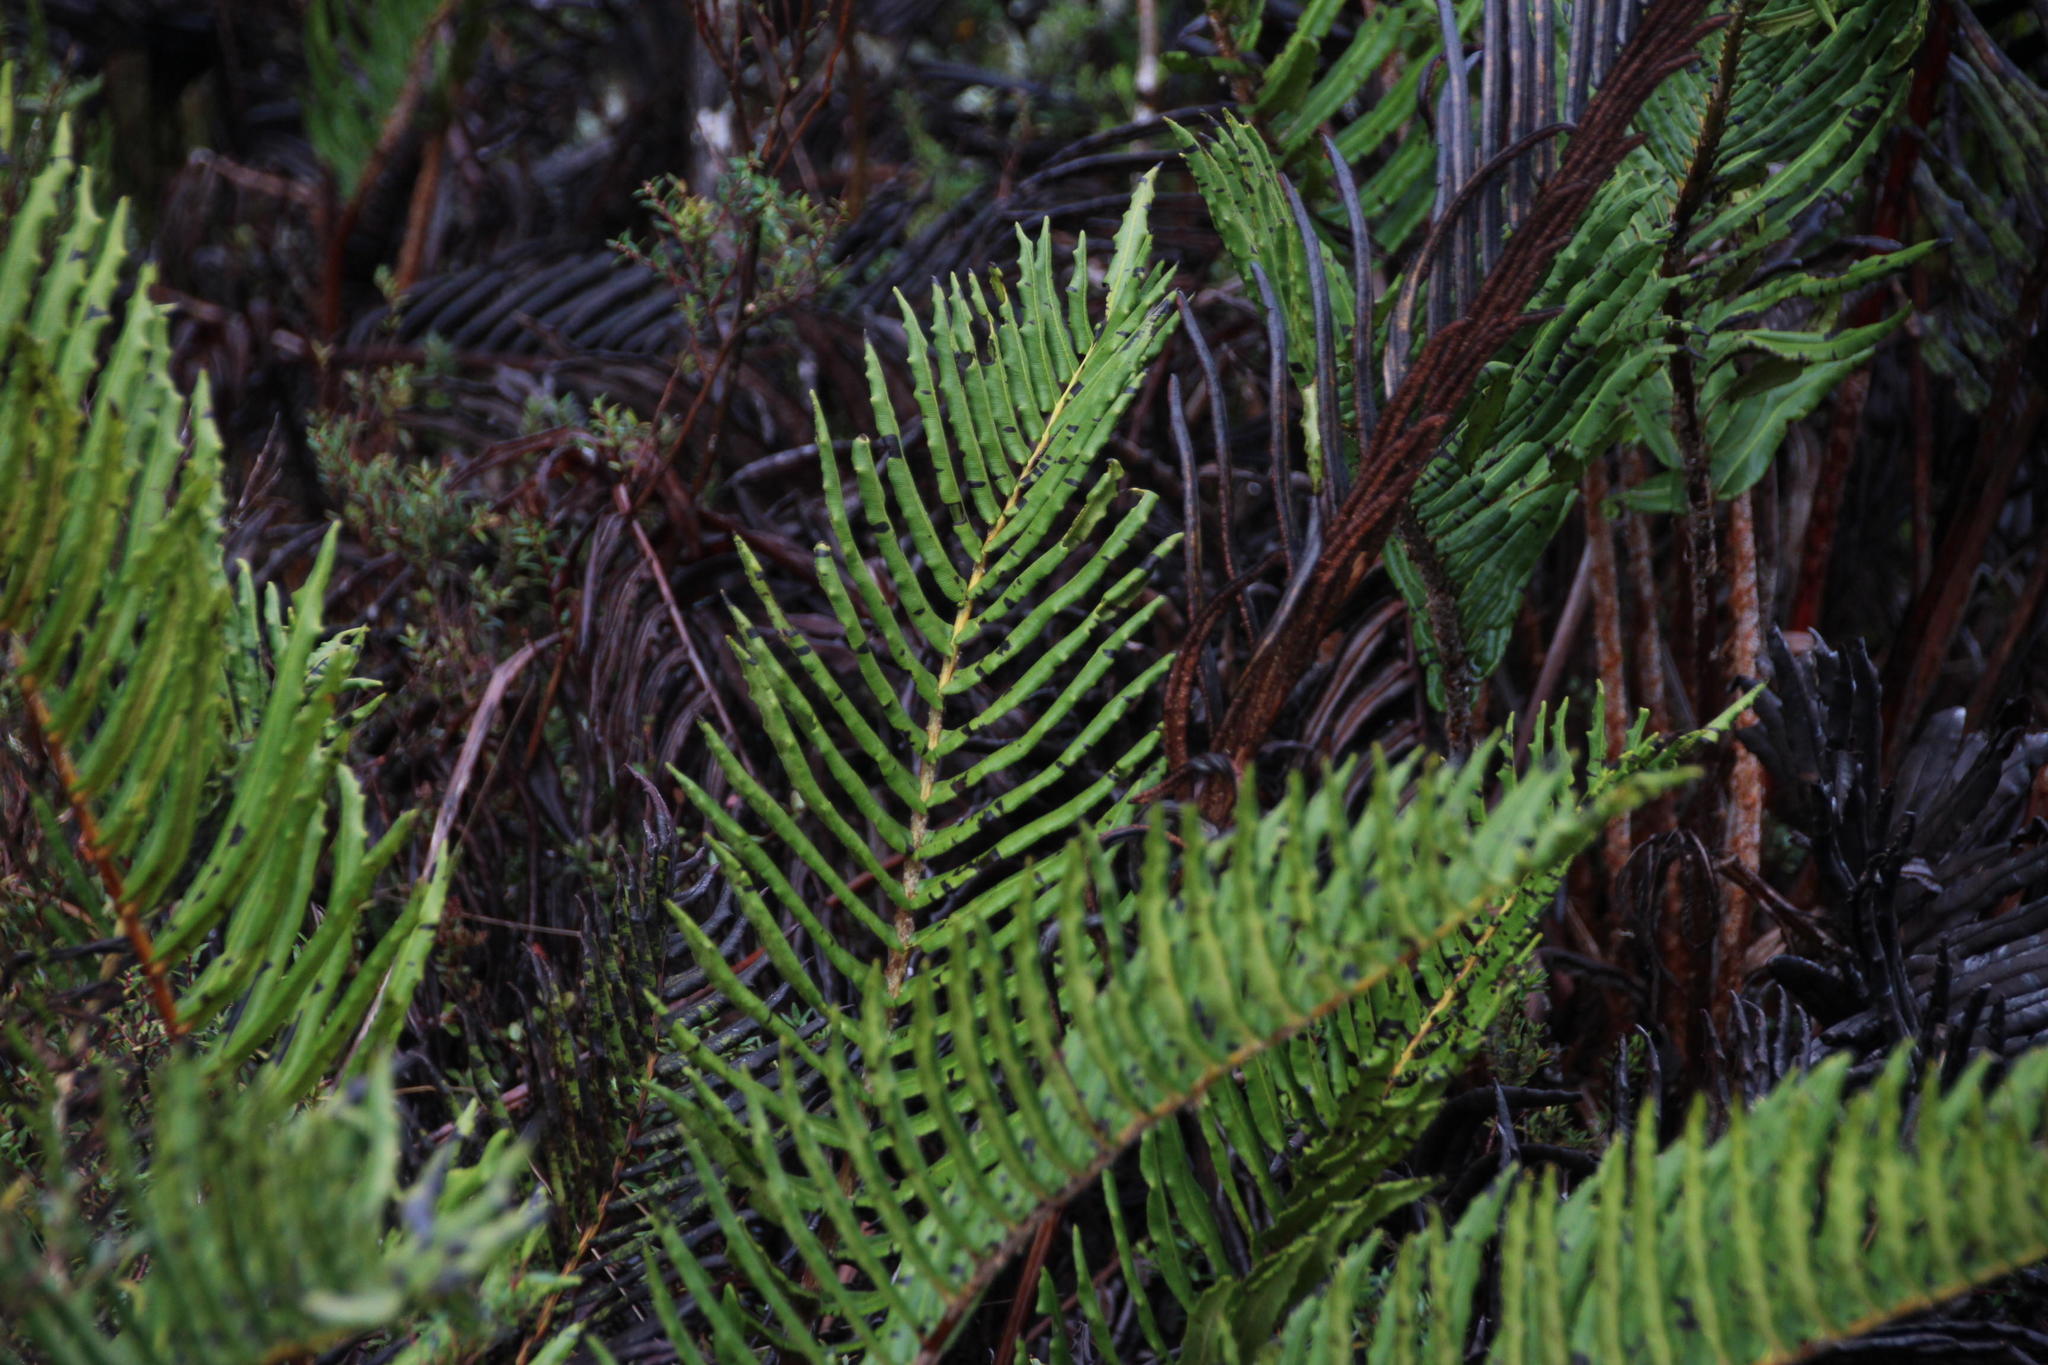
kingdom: Plantae
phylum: Tracheophyta
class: Polypodiopsida
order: Polypodiales
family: Blechnaceae
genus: Parablechnum
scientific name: Parablechnum chilense
